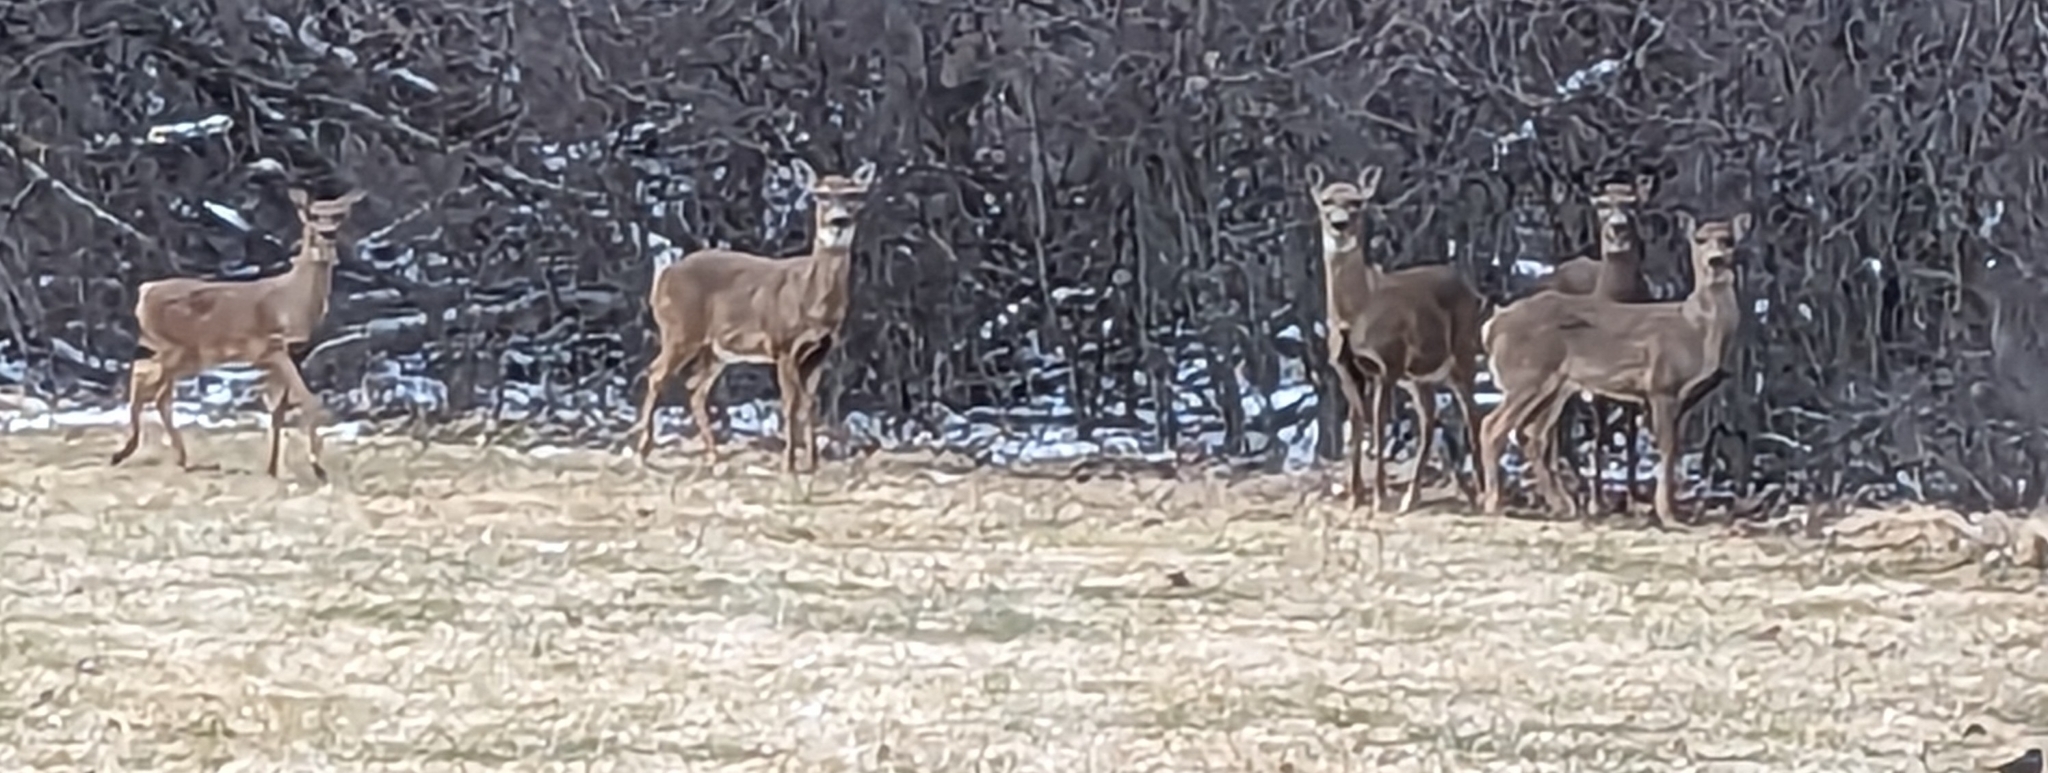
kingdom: Animalia
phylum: Chordata
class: Mammalia
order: Artiodactyla
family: Cervidae
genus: Odocoileus
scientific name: Odocoileus virginianus
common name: White-tailed deer
